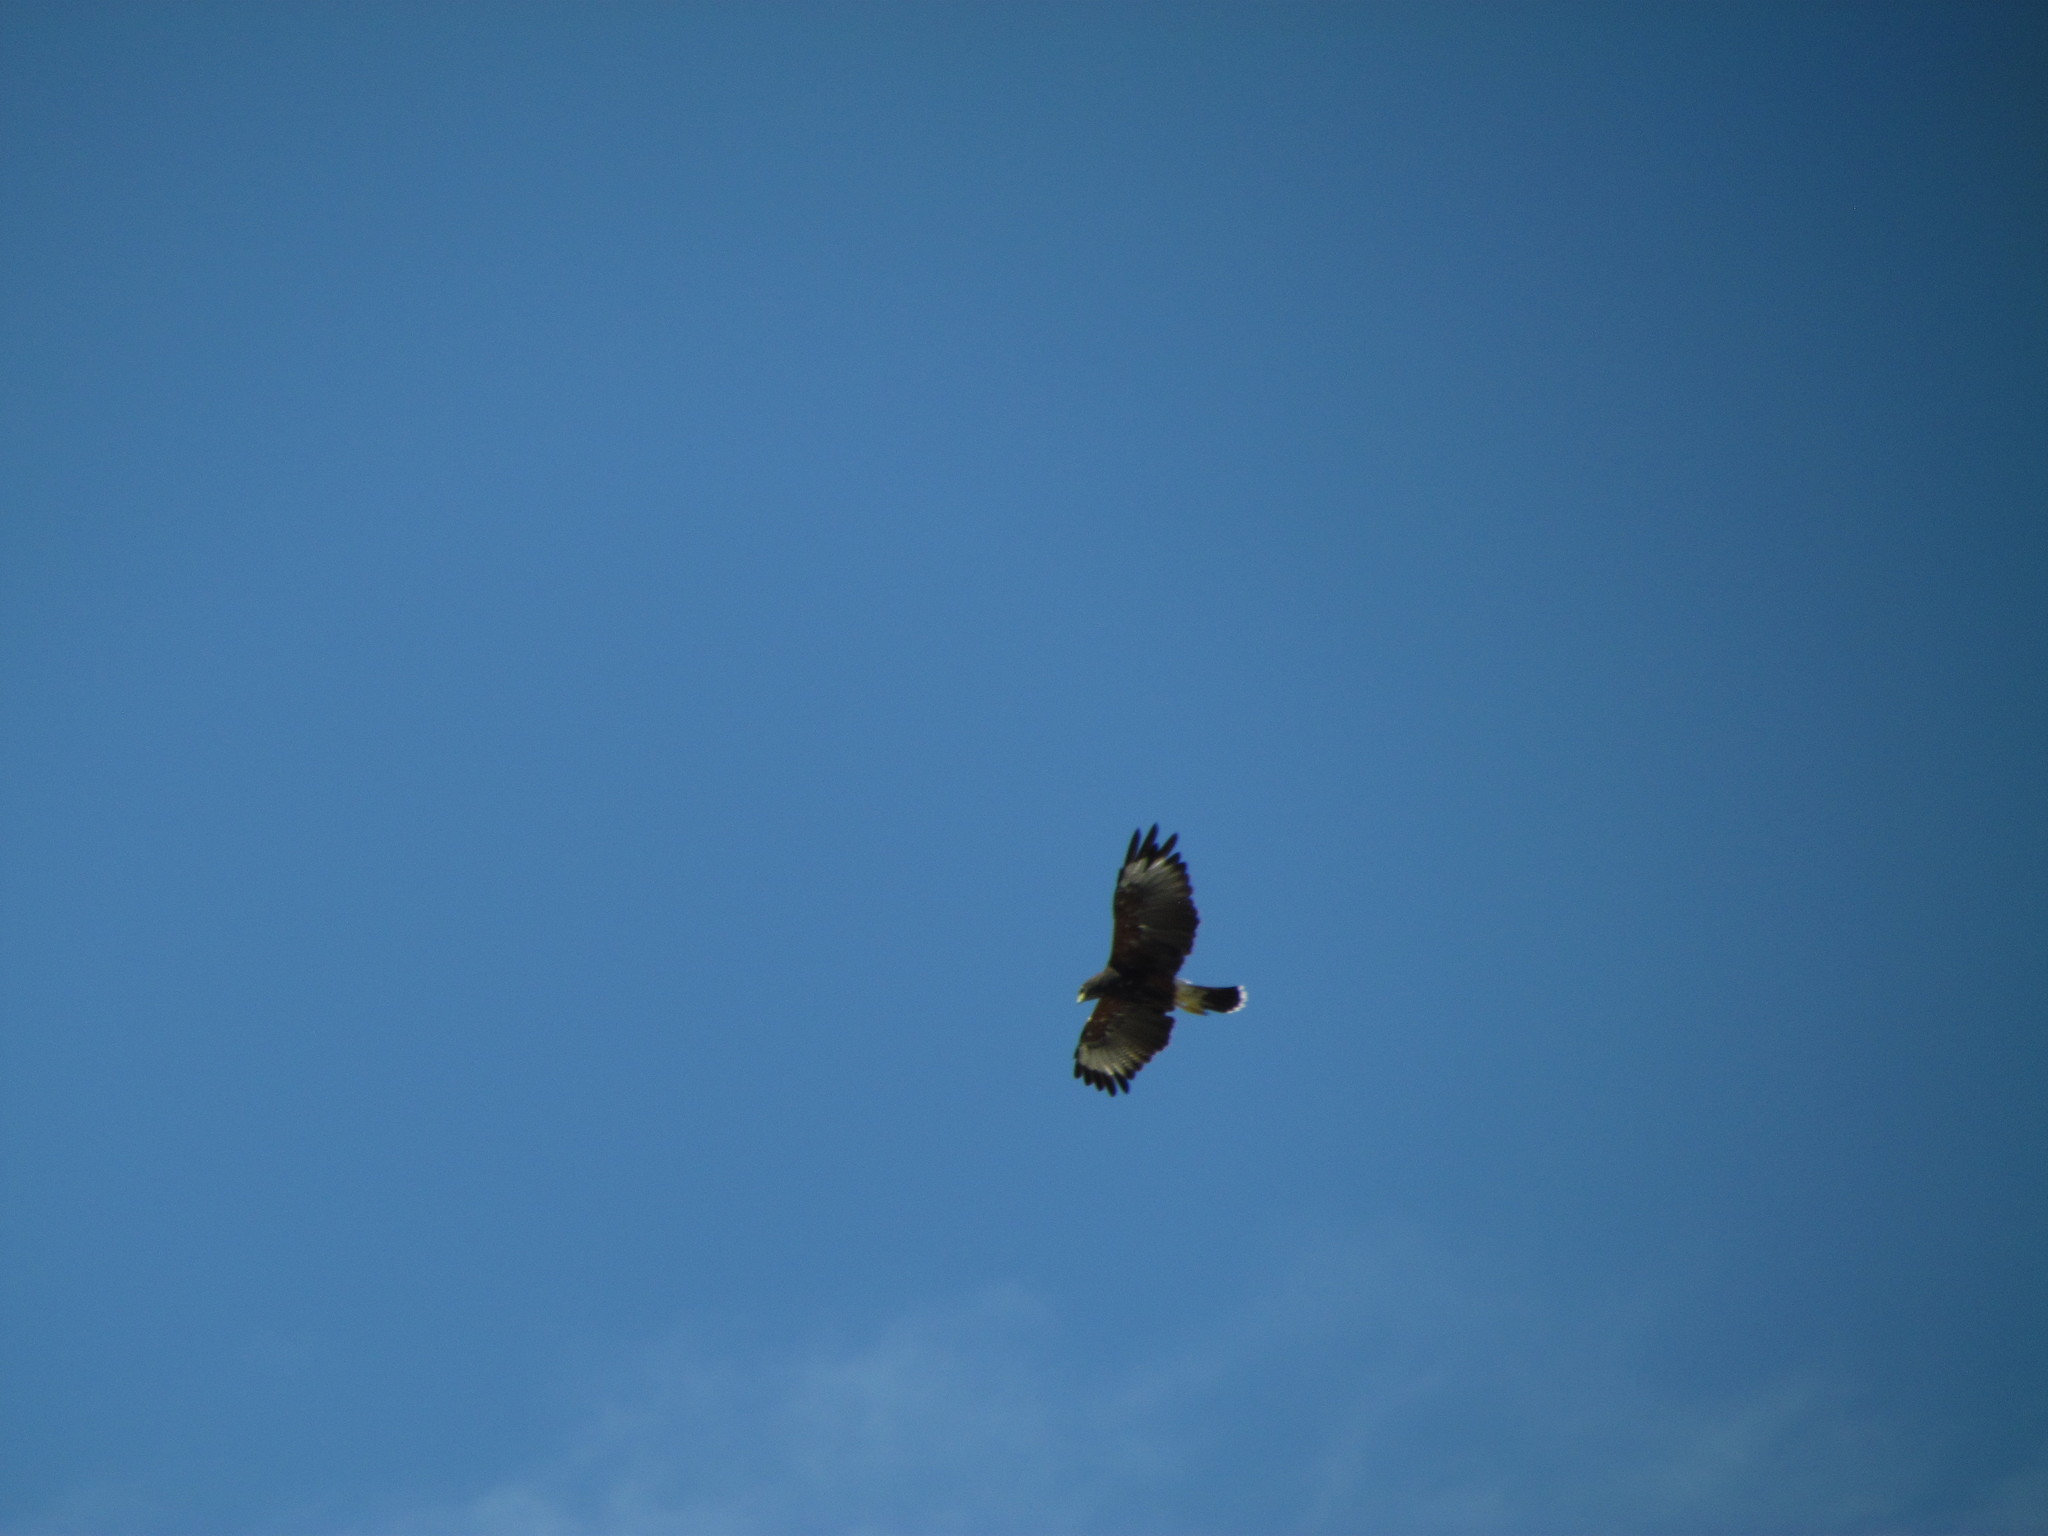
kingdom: Animalia
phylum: Chordata
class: Aves
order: Accipitriformes
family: Accipitridae
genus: Parabuteo
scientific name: Parabuteo unicinctus
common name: Harris's hawk
